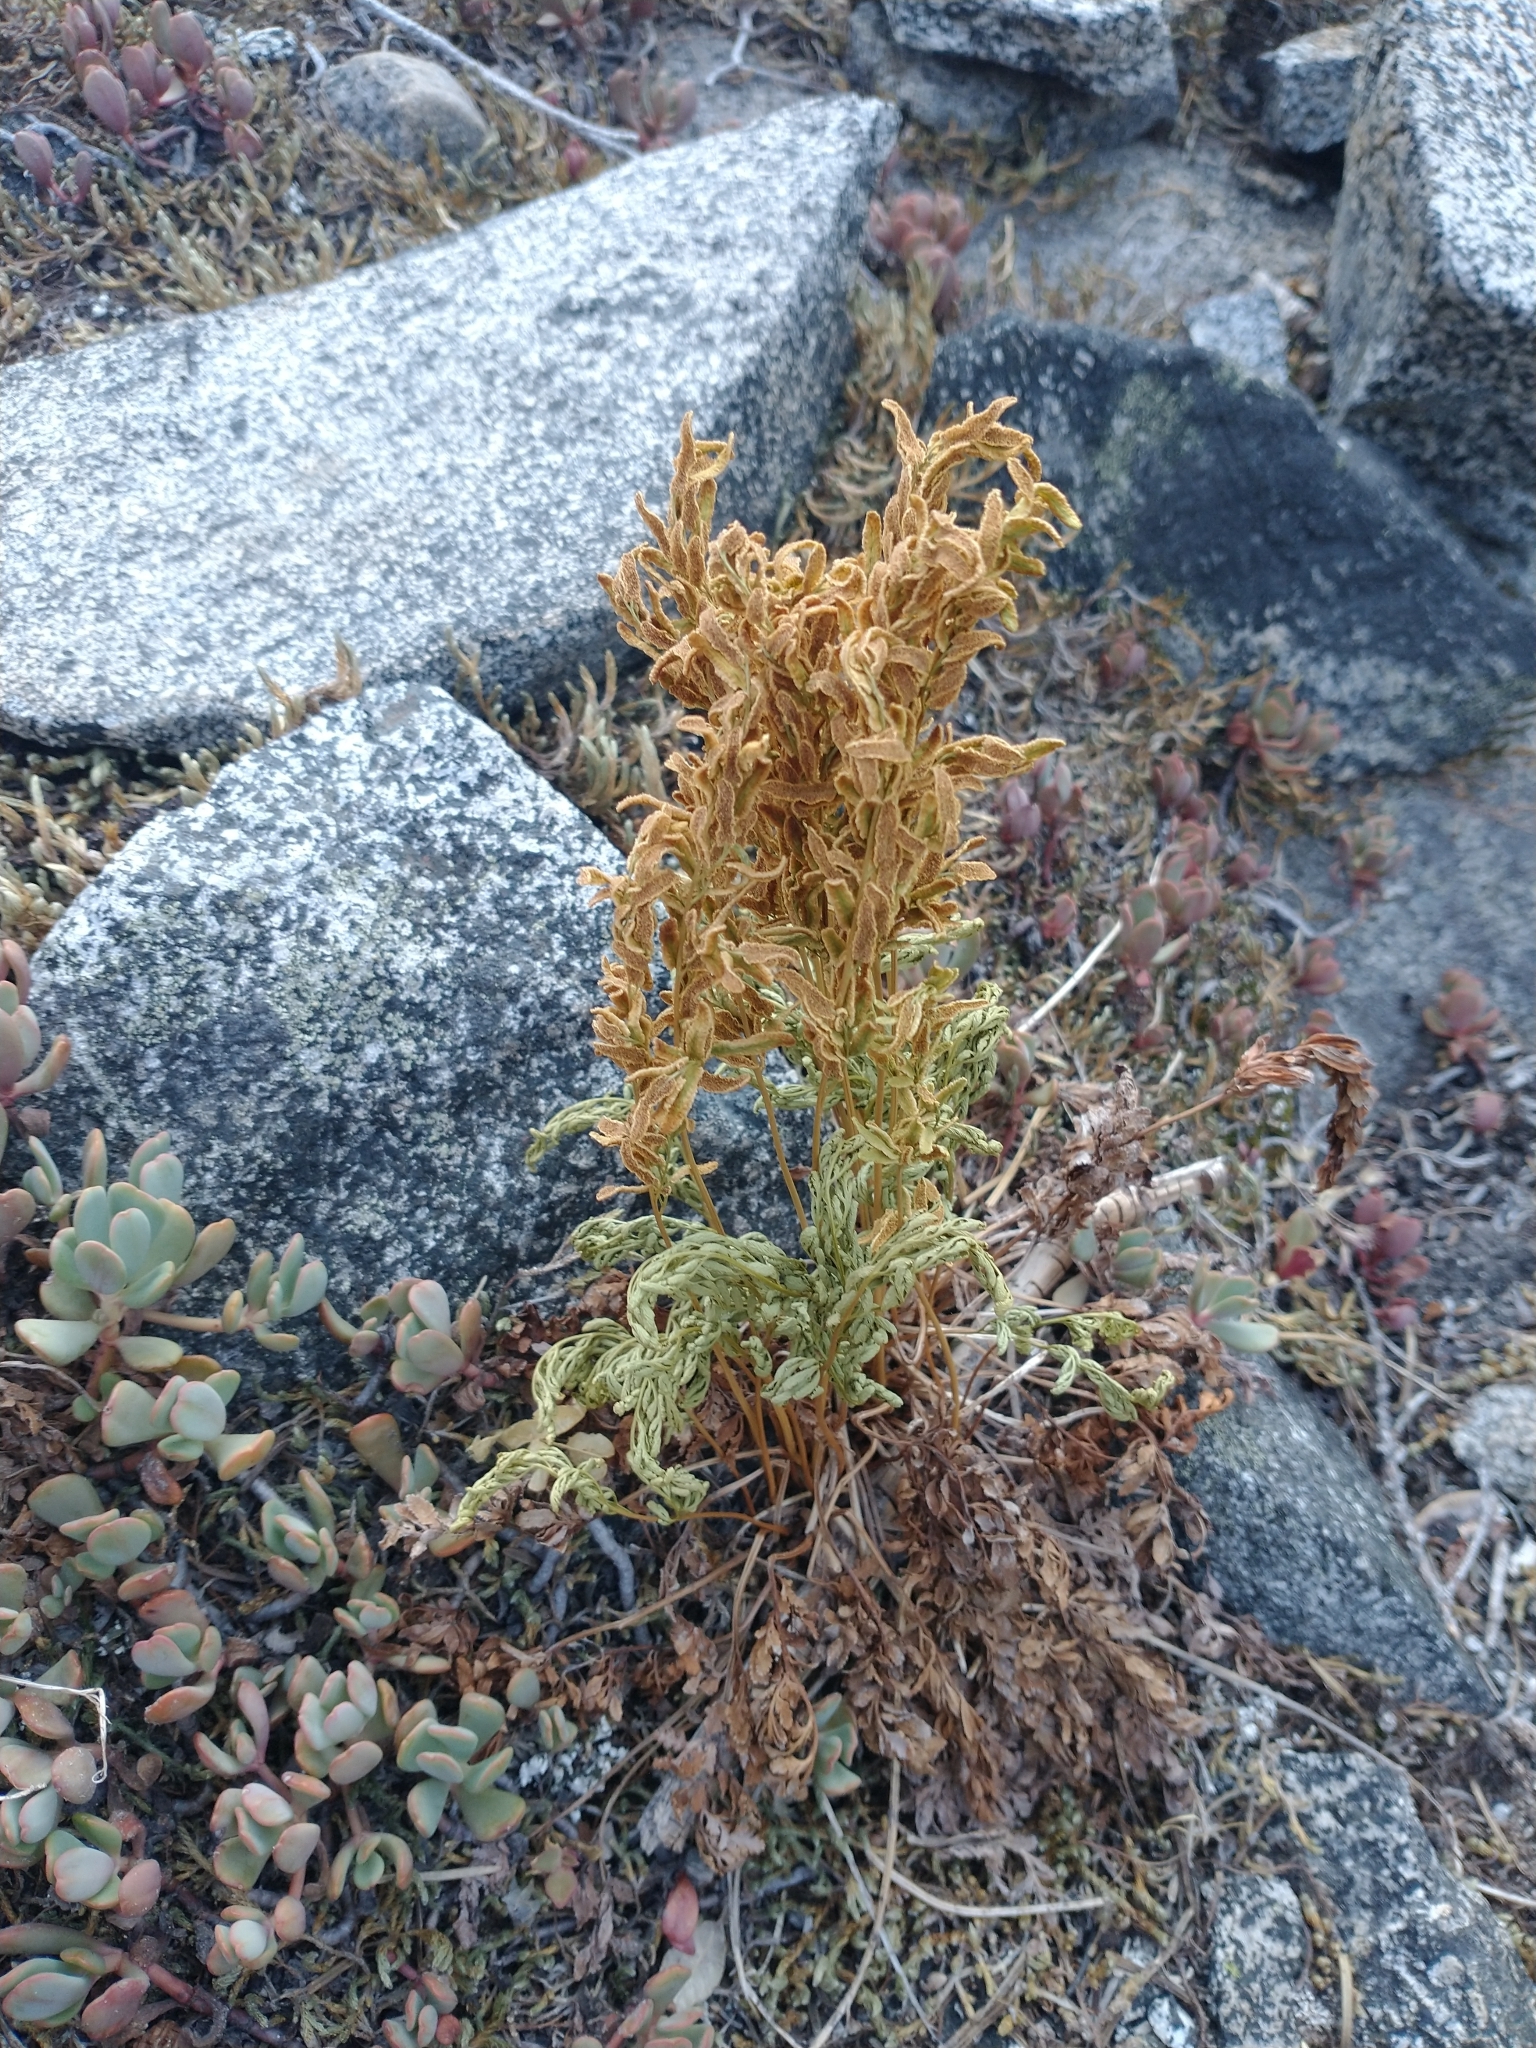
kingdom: Plantae
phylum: Tracheophyta
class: Polypodiopsida
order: Polypodiales
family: Pteridaceae
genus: Cryptogramma
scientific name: Cryptogramma acrostichoides
